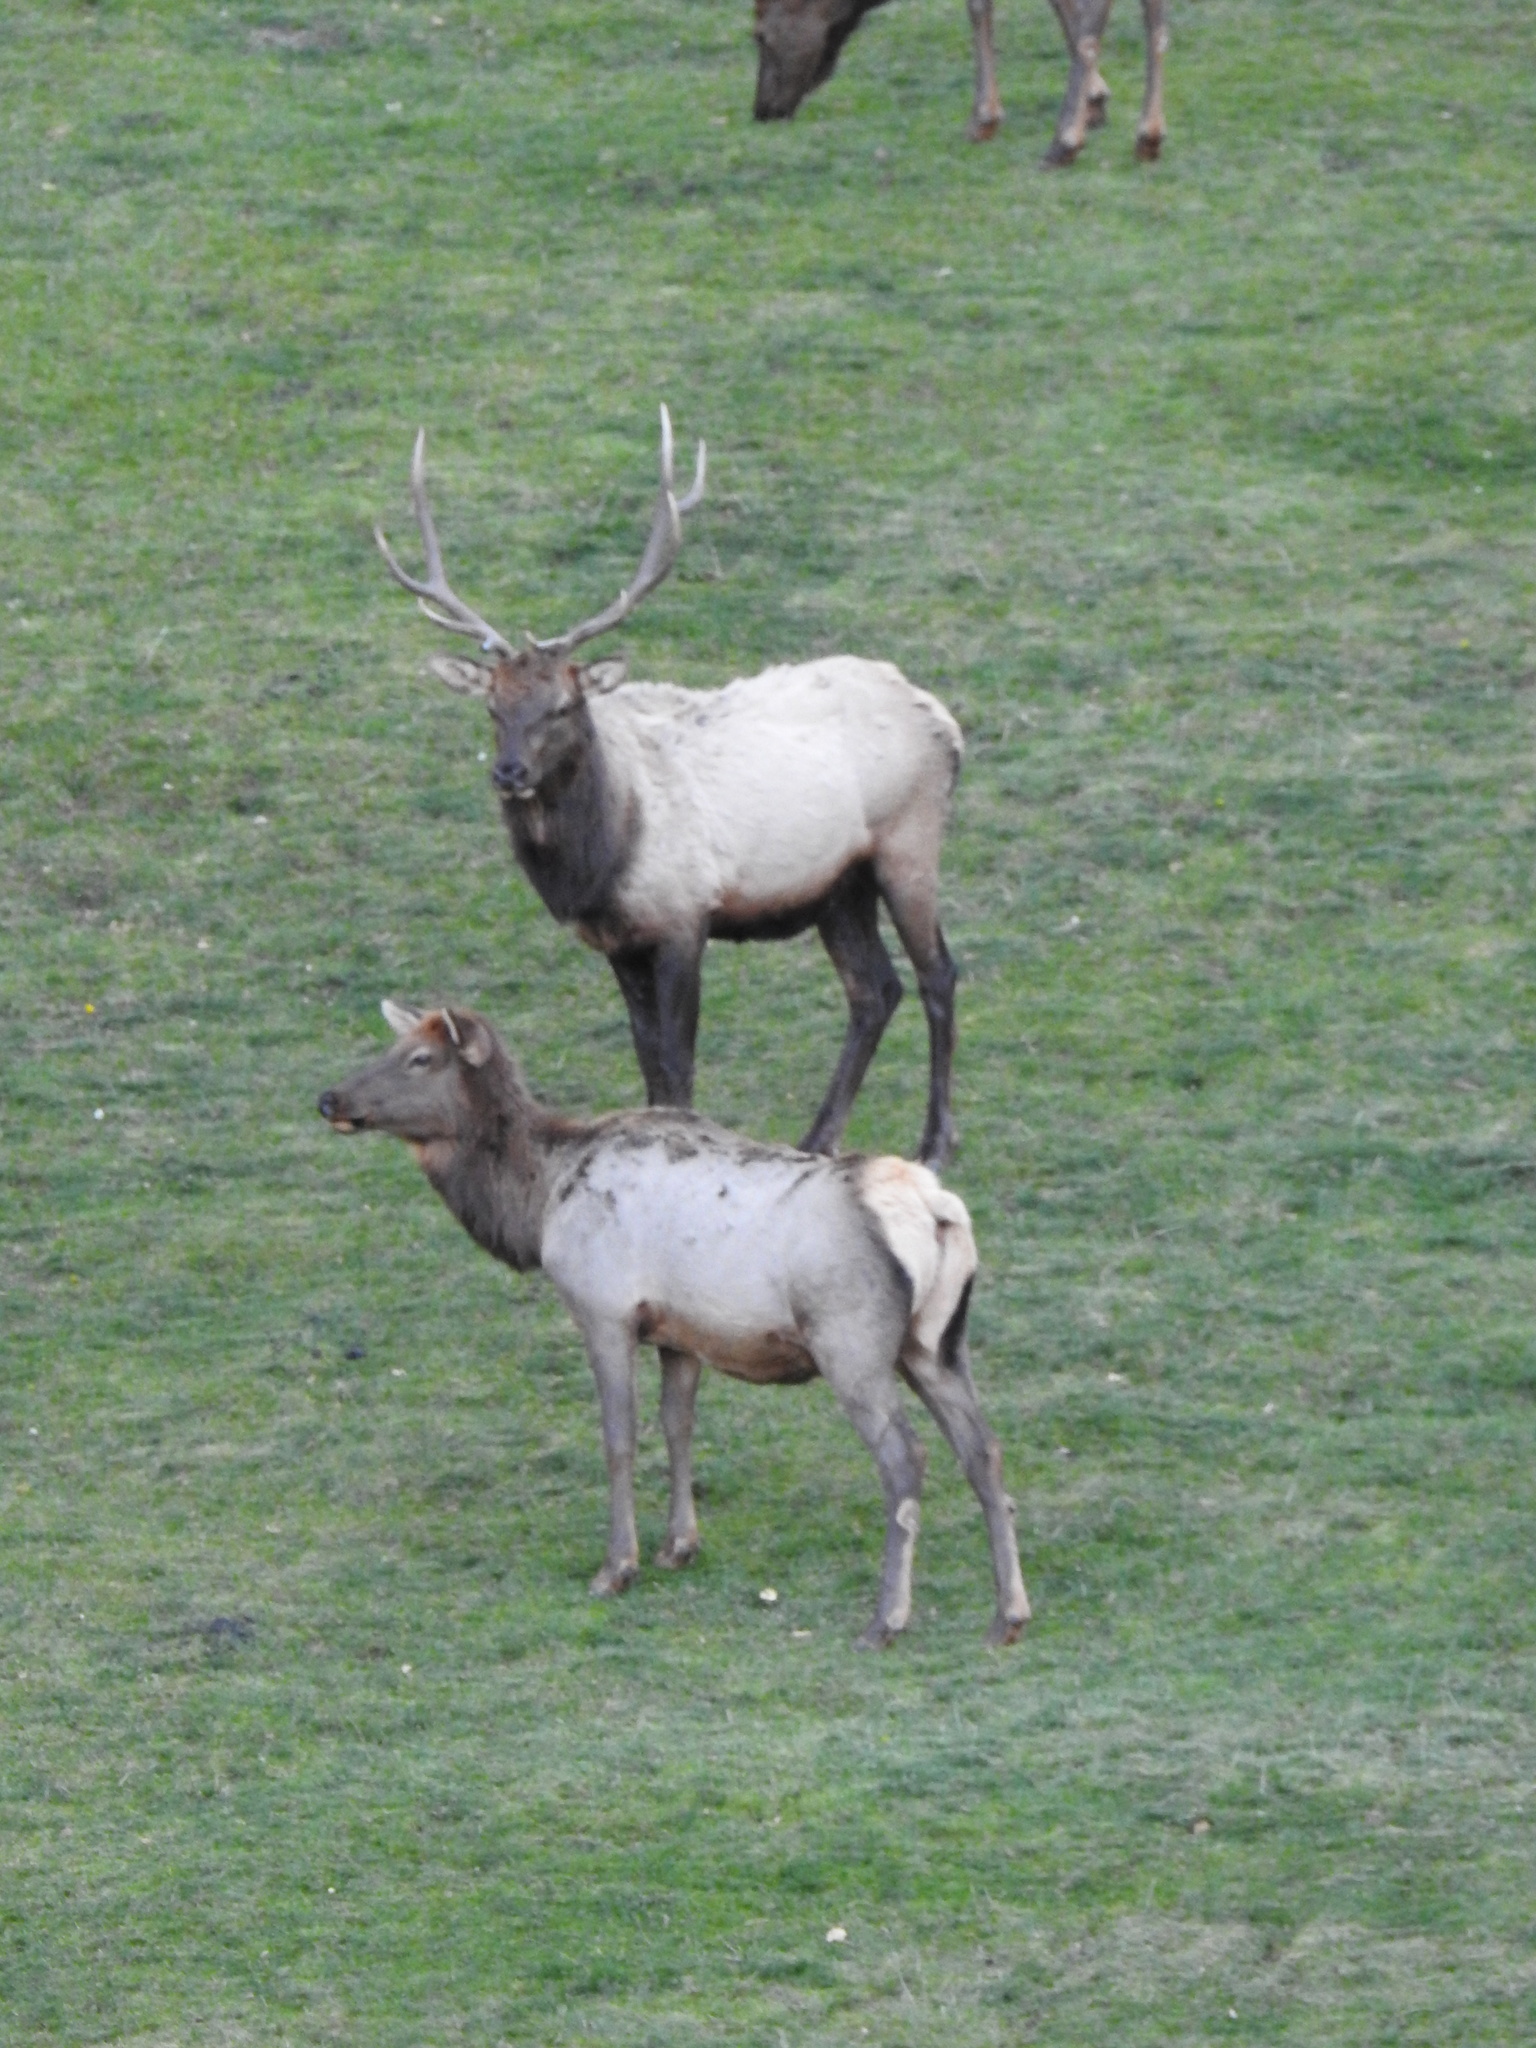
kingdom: Animalia
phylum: Chordata
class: Mammalia
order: Artiodactyla
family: Cervidae
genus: Cervus
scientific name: Cervus elaphus
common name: Red deer
